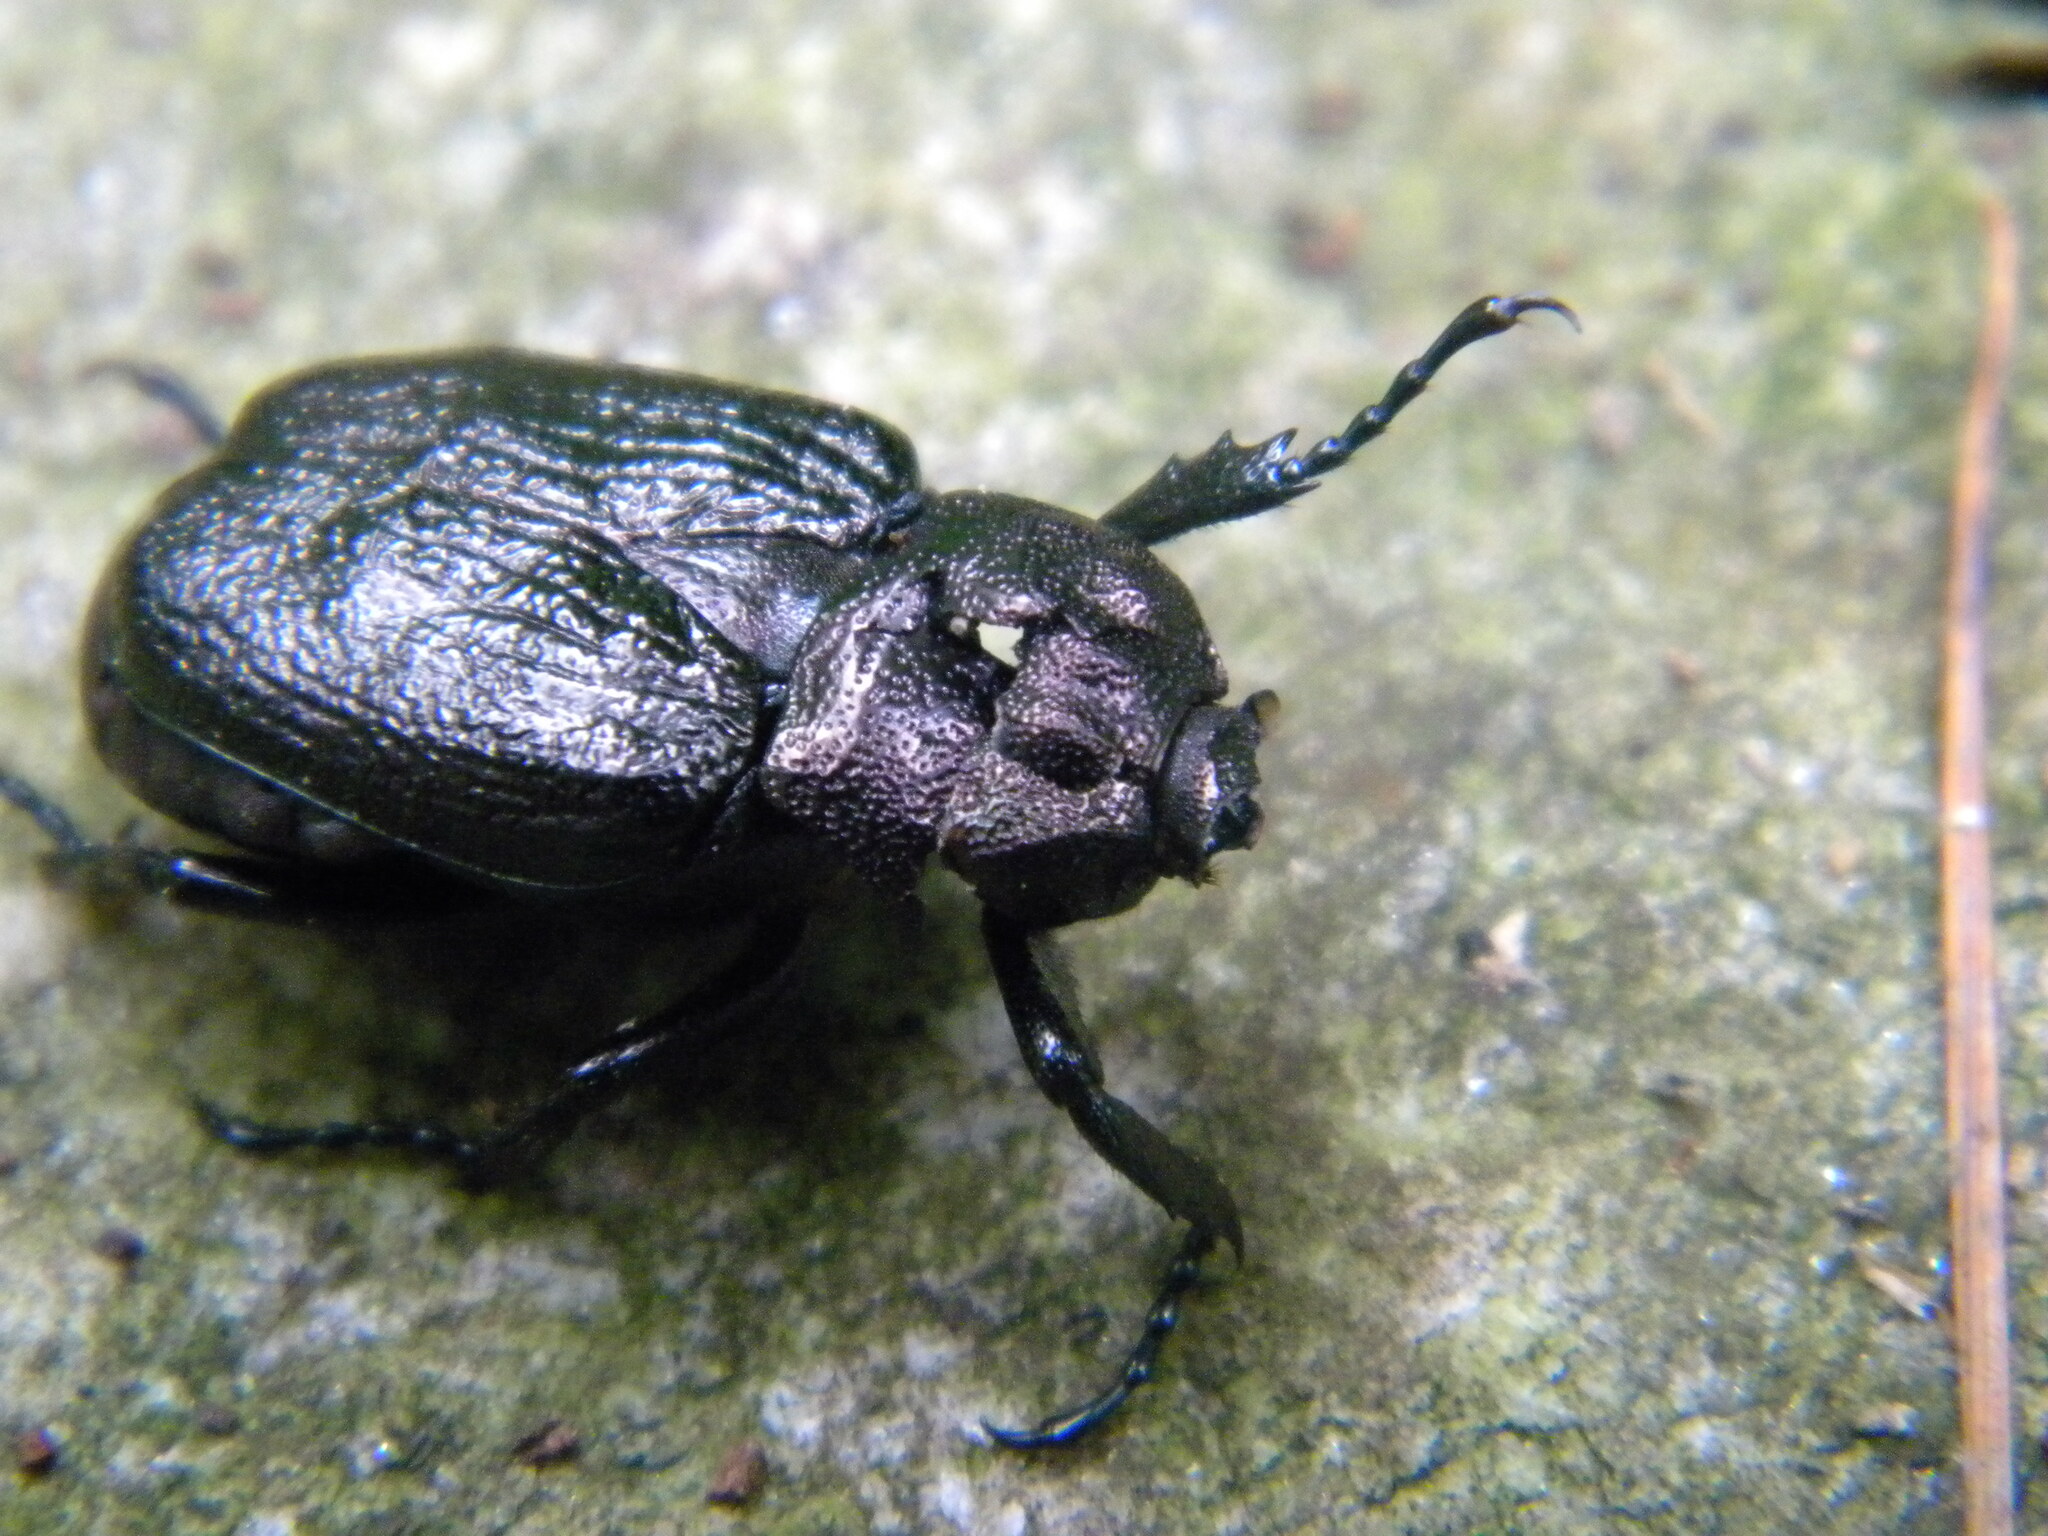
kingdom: Animalia
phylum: Arthropoda
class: Insecta
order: Coleoptera
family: Scarabaeidae
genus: Osmoderma
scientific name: Osmoderma scabra
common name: Rough hermit beetle
